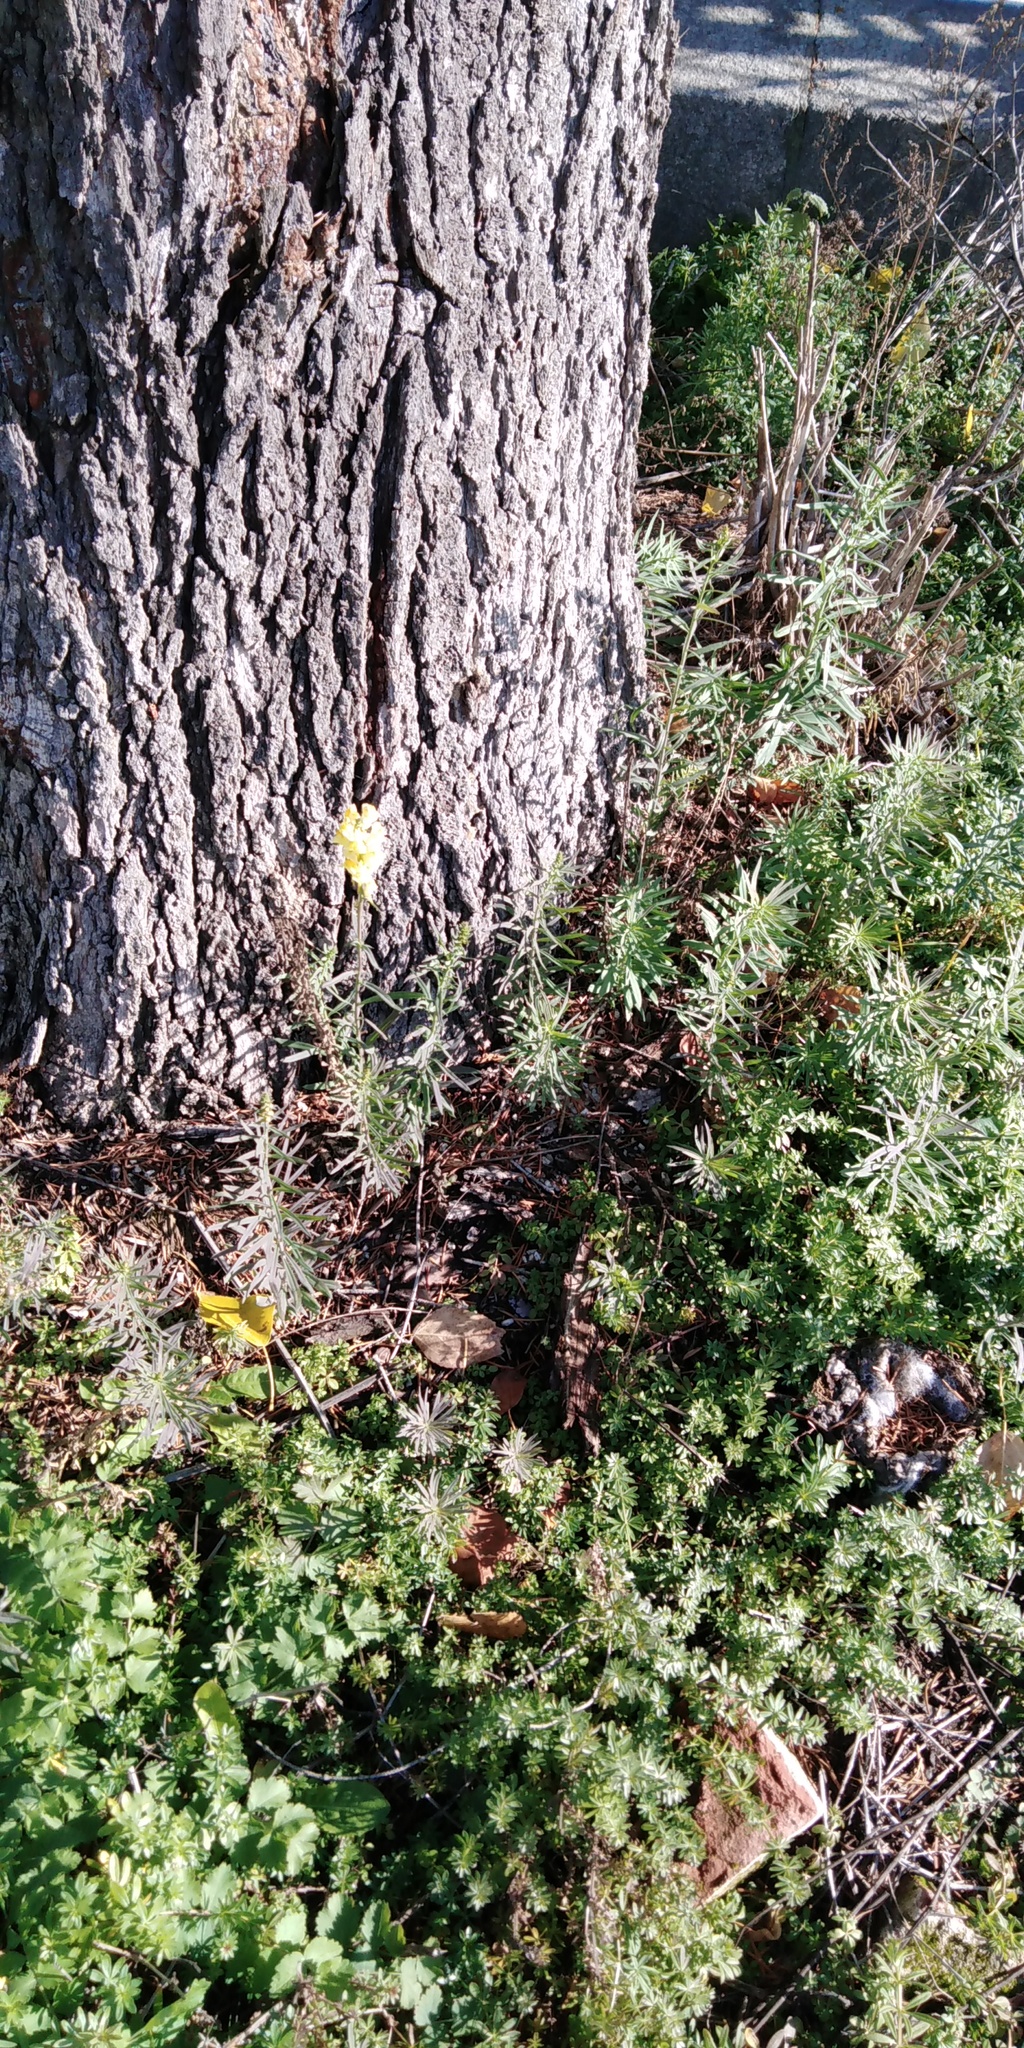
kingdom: Plantae
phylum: Tracheophyta
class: Magnoliopsida
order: Lamiales
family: Plantaginaceae
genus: Linaria
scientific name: Linaria vulgaris
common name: Butter and eggs
